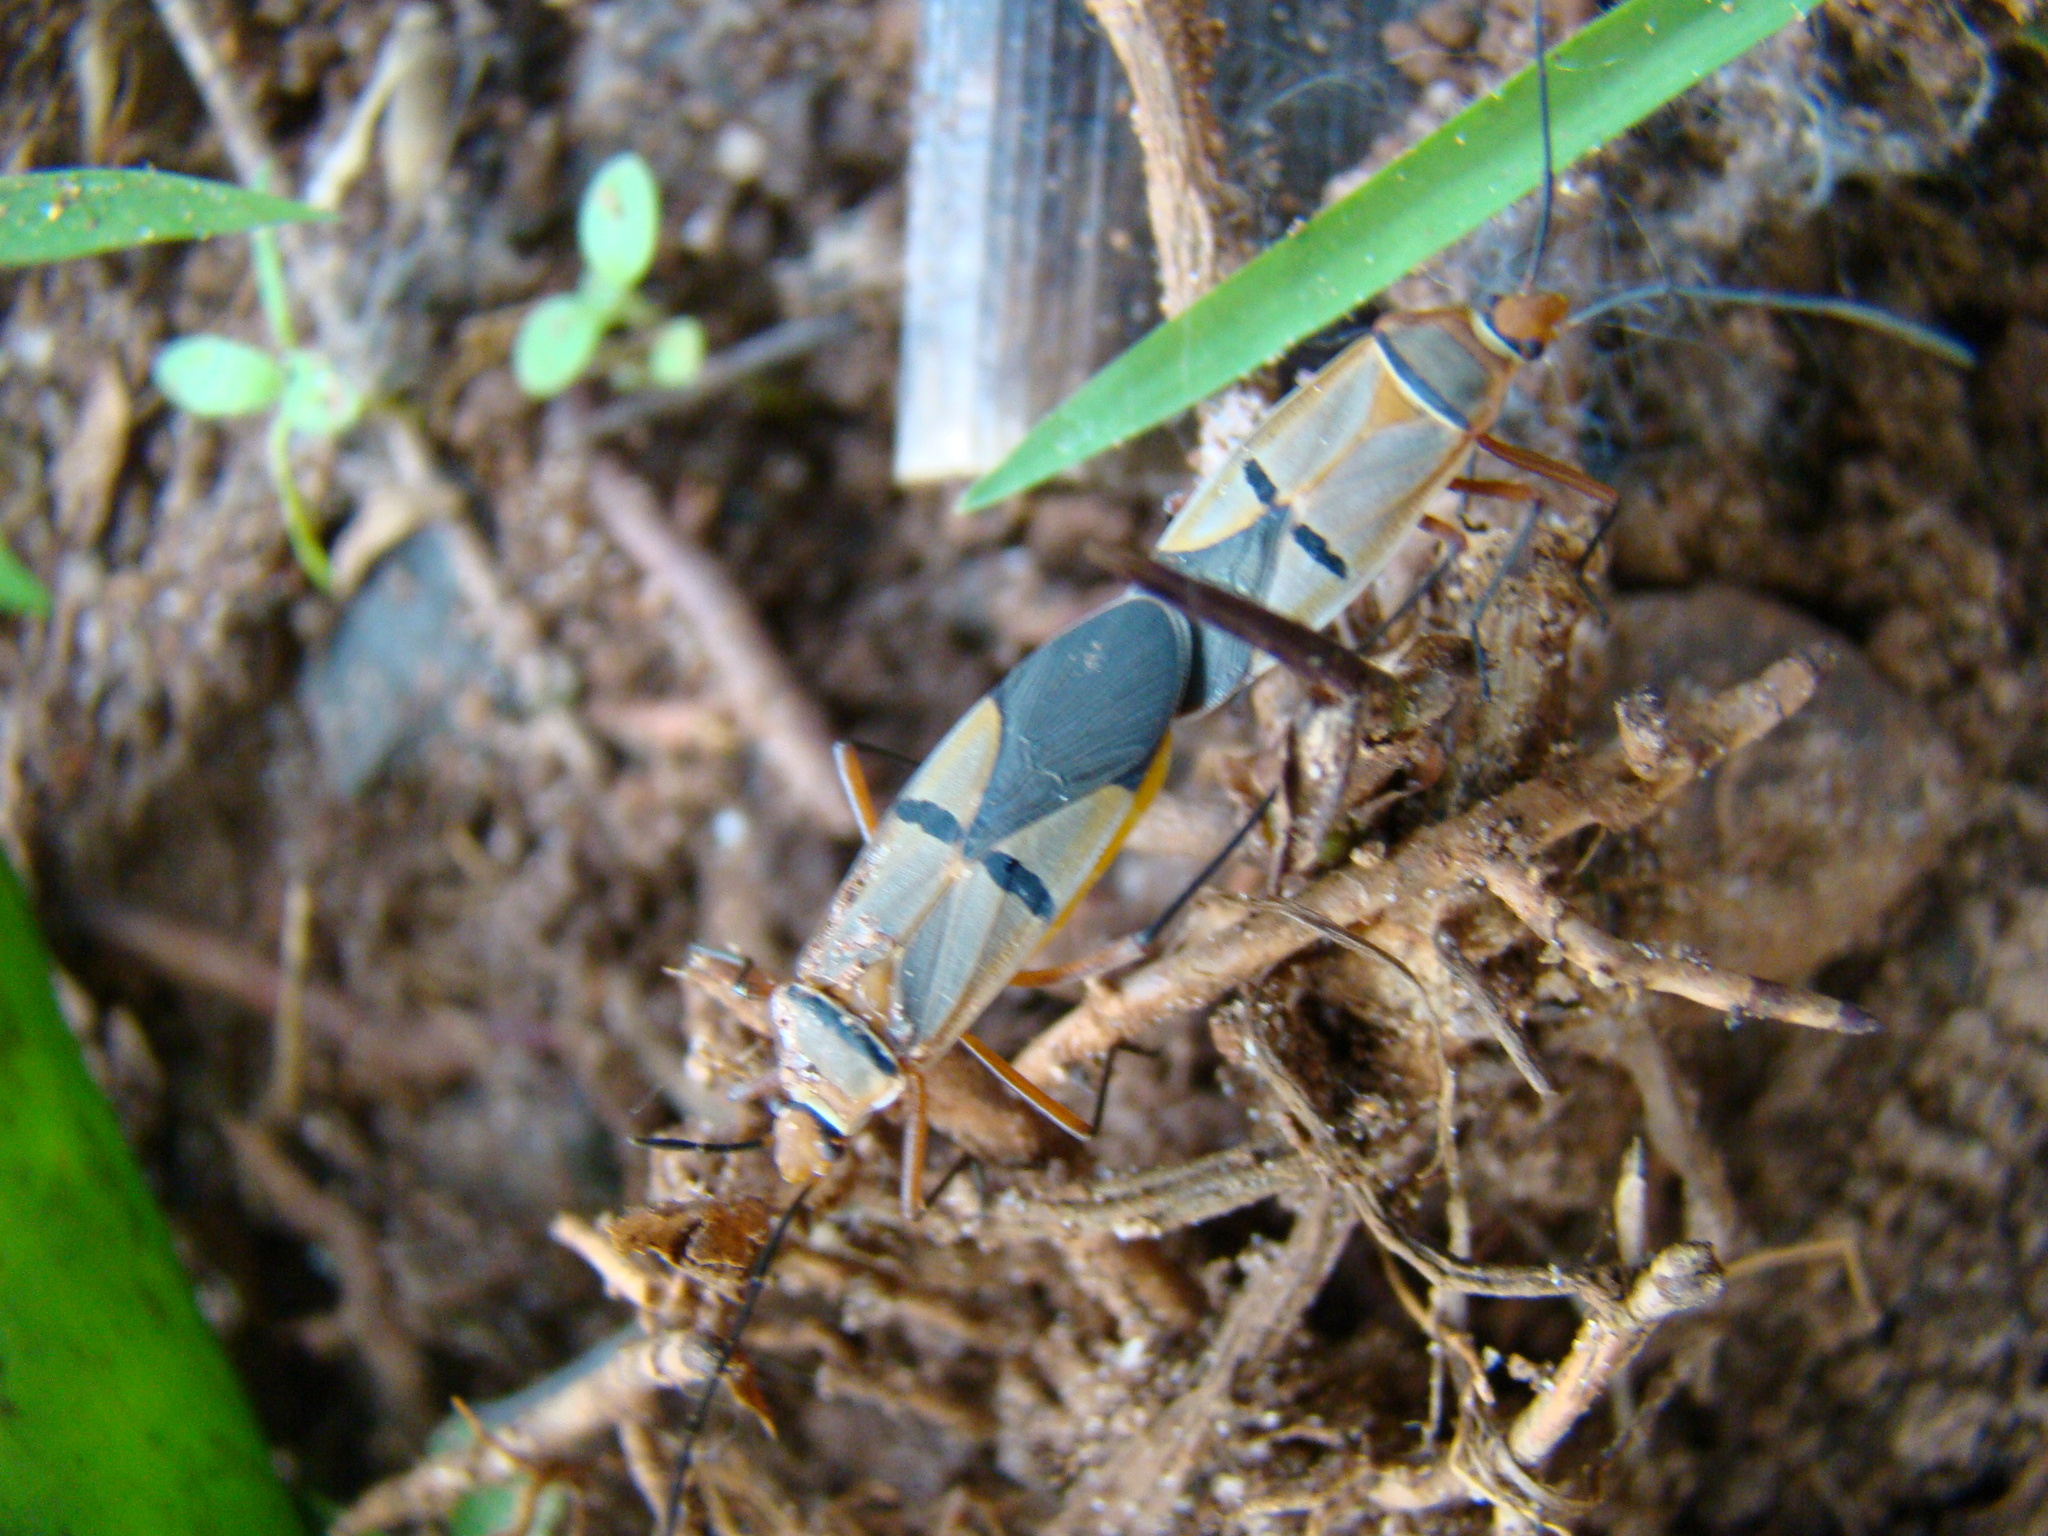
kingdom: Animalia
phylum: Arthropoda
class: Insecta
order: Hemiptera
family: Pyrrhocoridae
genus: Dysdercus
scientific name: Dysdercus
